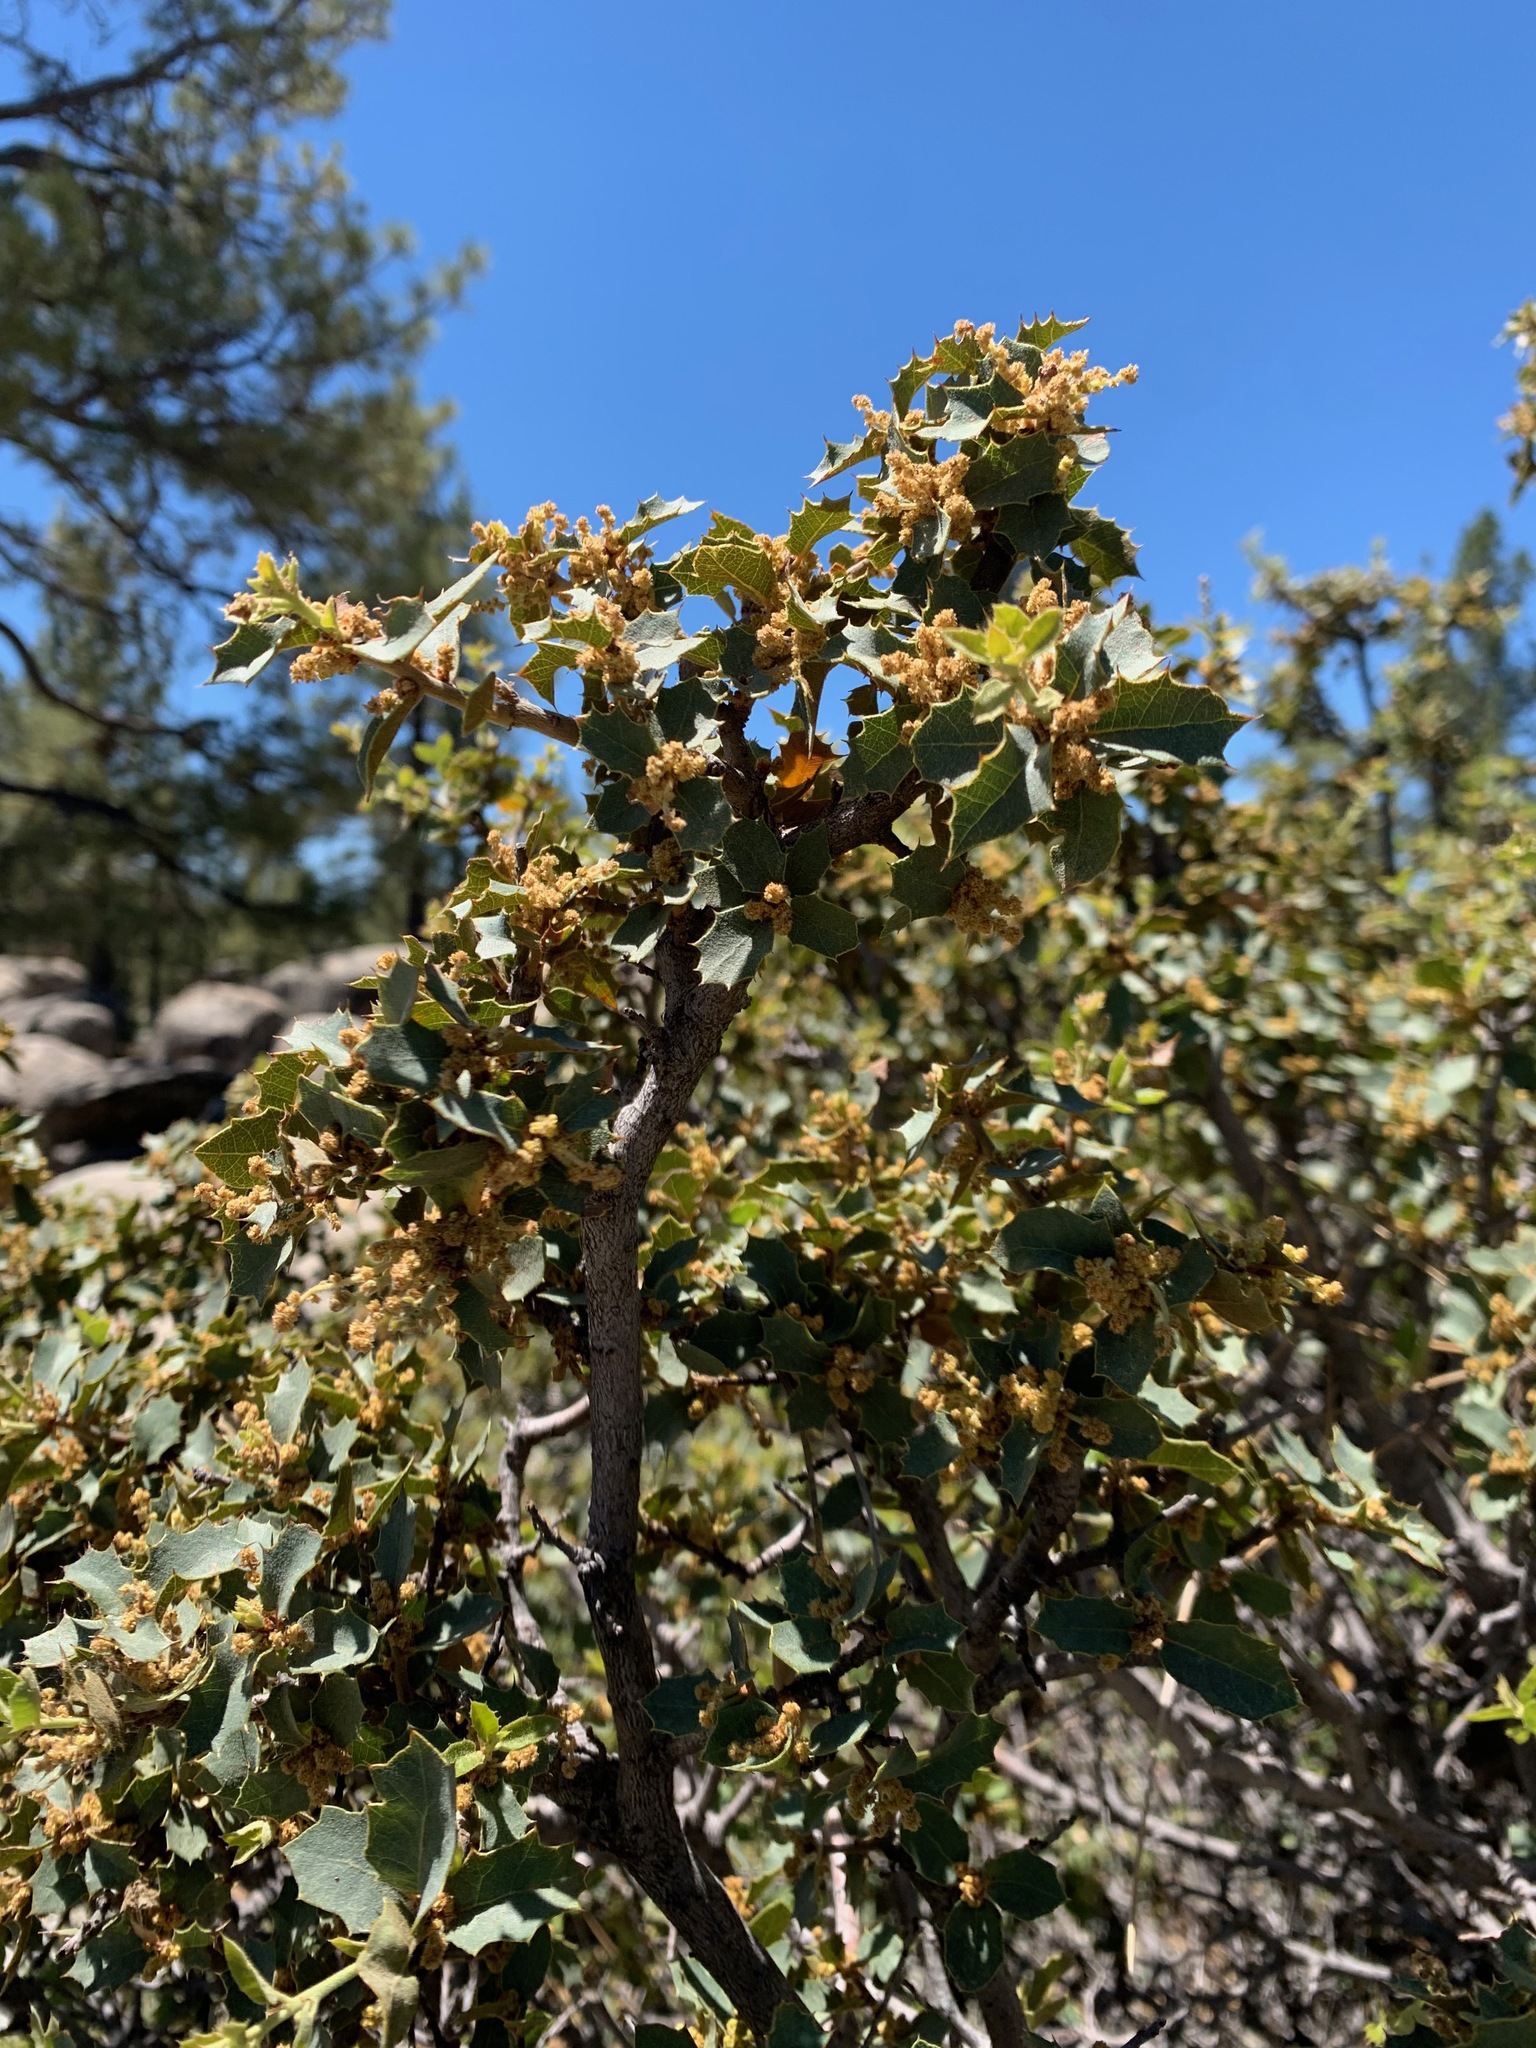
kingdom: Plantae
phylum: Tracheophyta
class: Magnoliopsida
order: Fagales
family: Fagaceae
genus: Quercus
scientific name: Quercus turbinella
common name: Sonoran scrub oak
